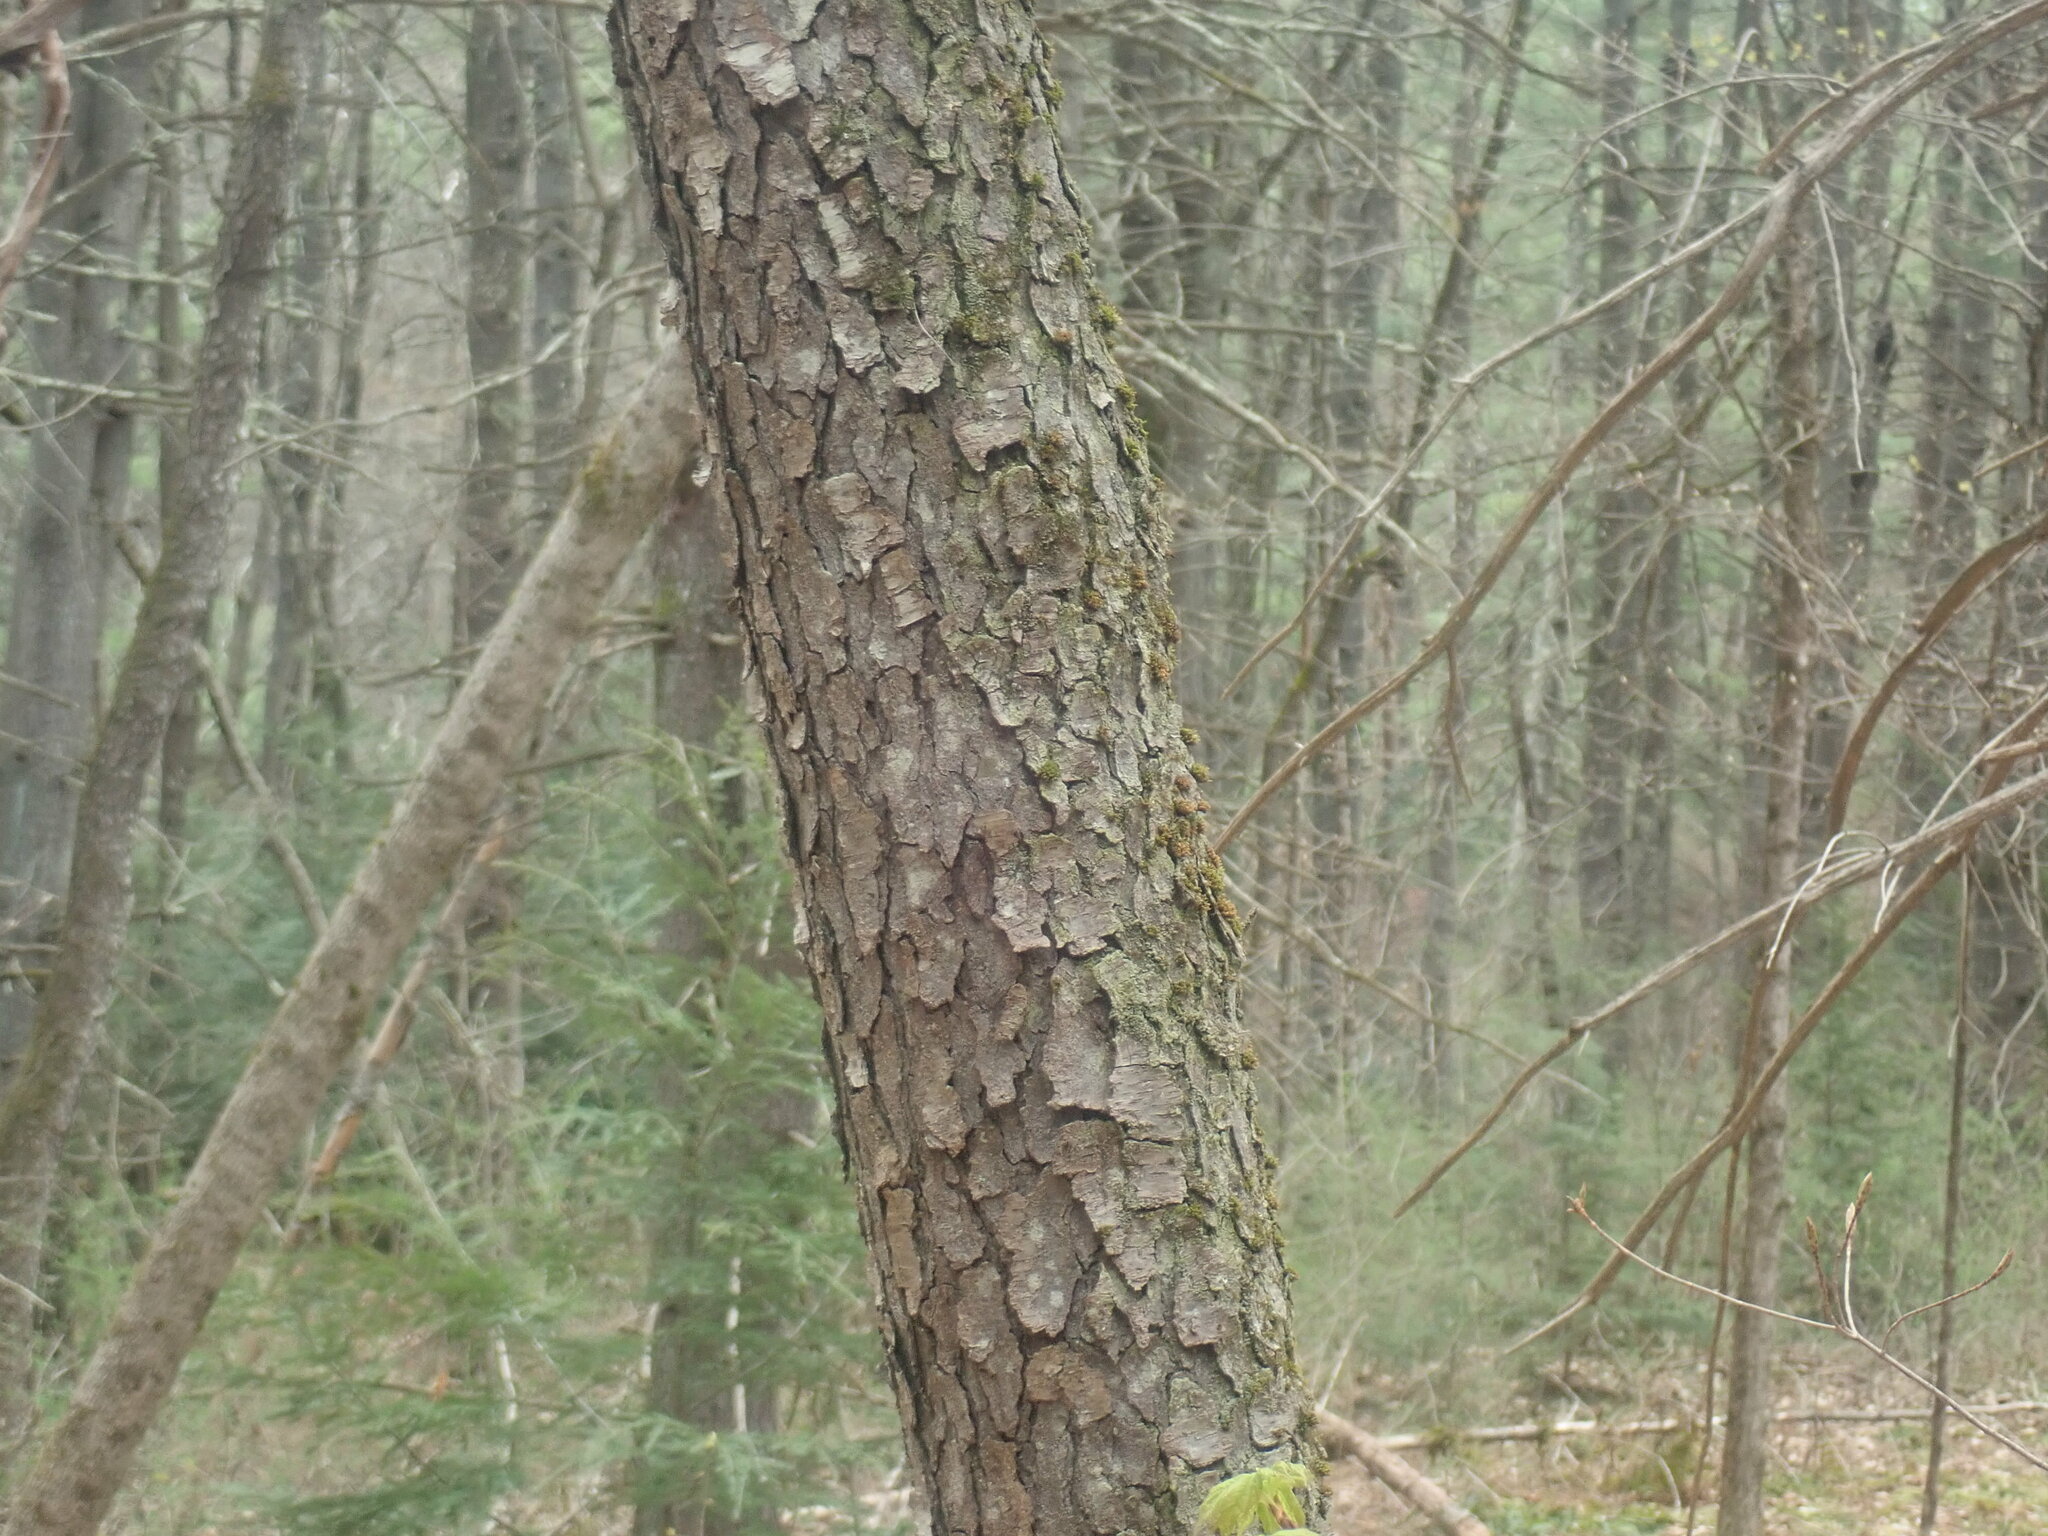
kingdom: Plantae
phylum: Tracheophyta
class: Magnoliopsida
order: Rosales
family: Rosaceae
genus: Prunus
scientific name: Prunus serotina
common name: Black cherry
